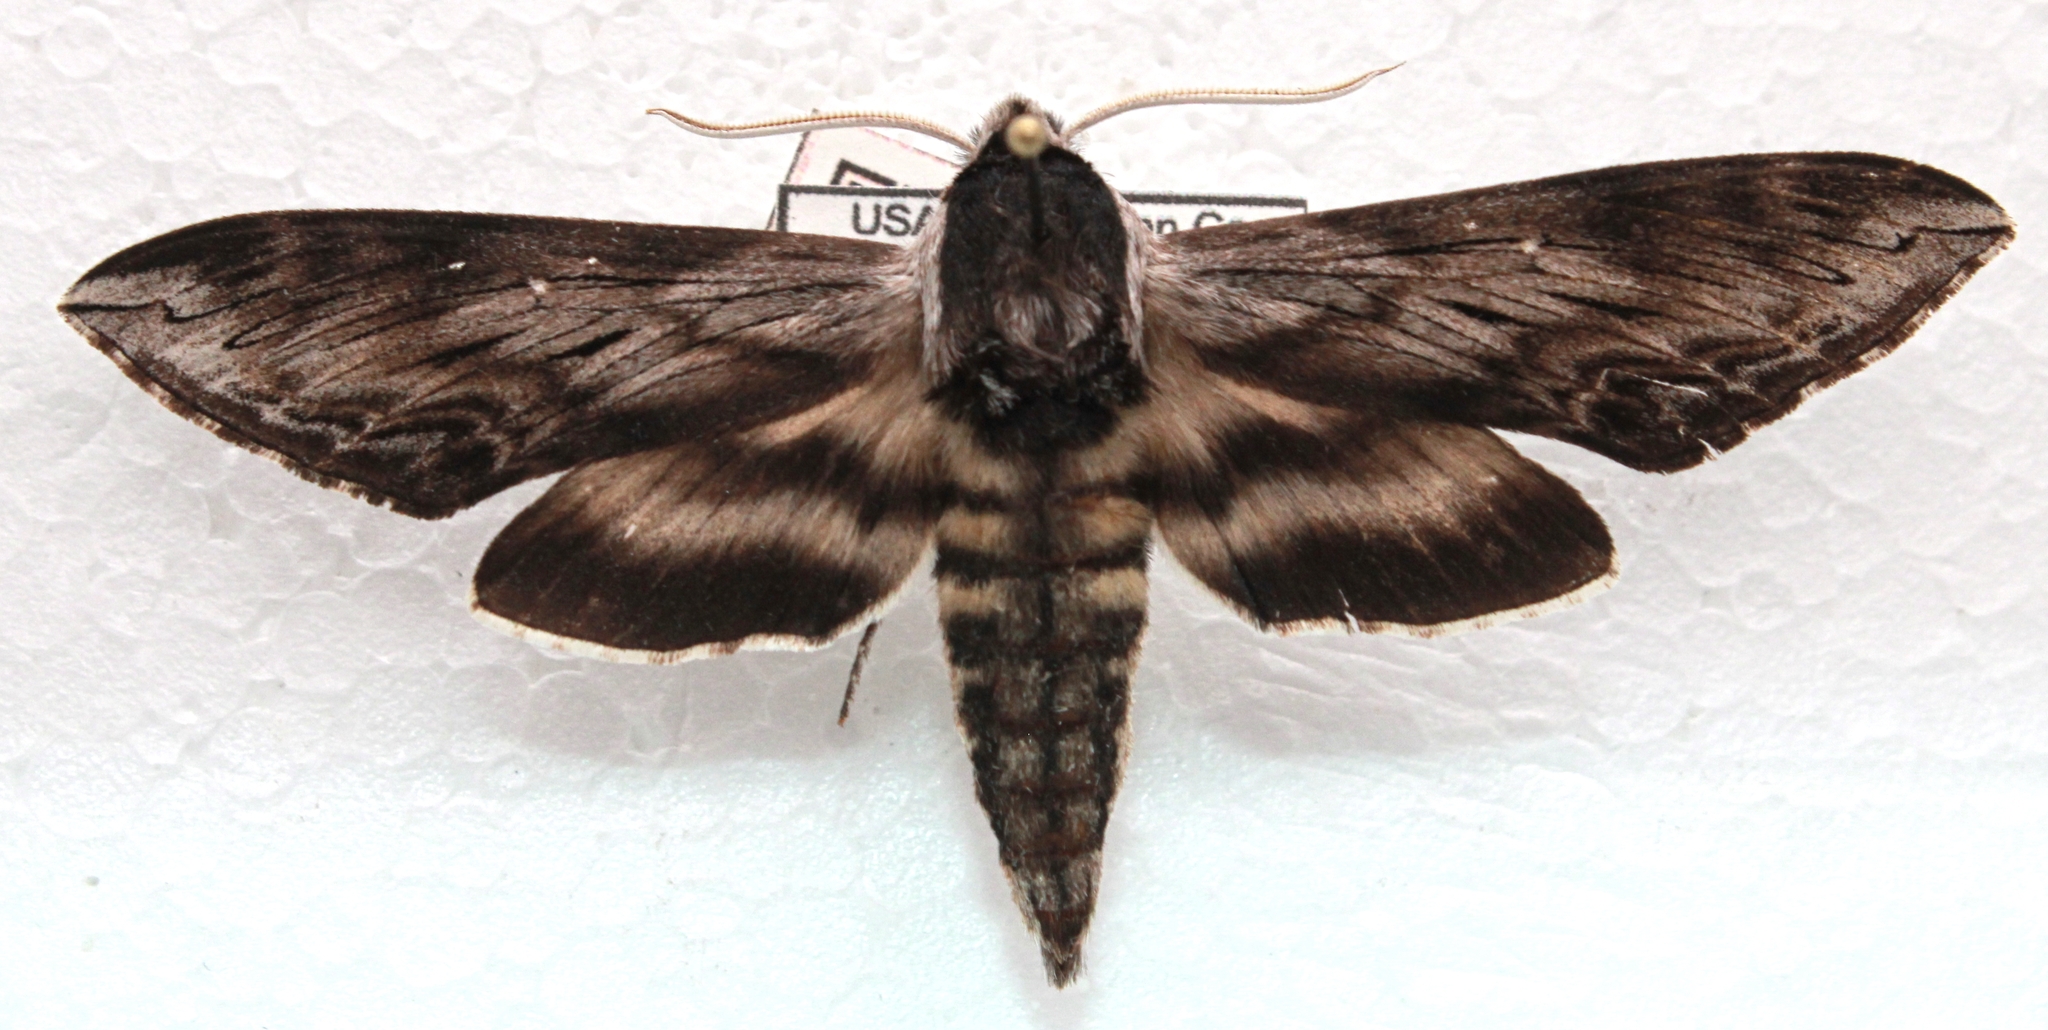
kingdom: Animalia
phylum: Arthropoda
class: Insecta
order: Lepidoptera
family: Sphingidae
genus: Sphinx
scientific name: Sphinx poecila
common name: Northern apple sphinx
